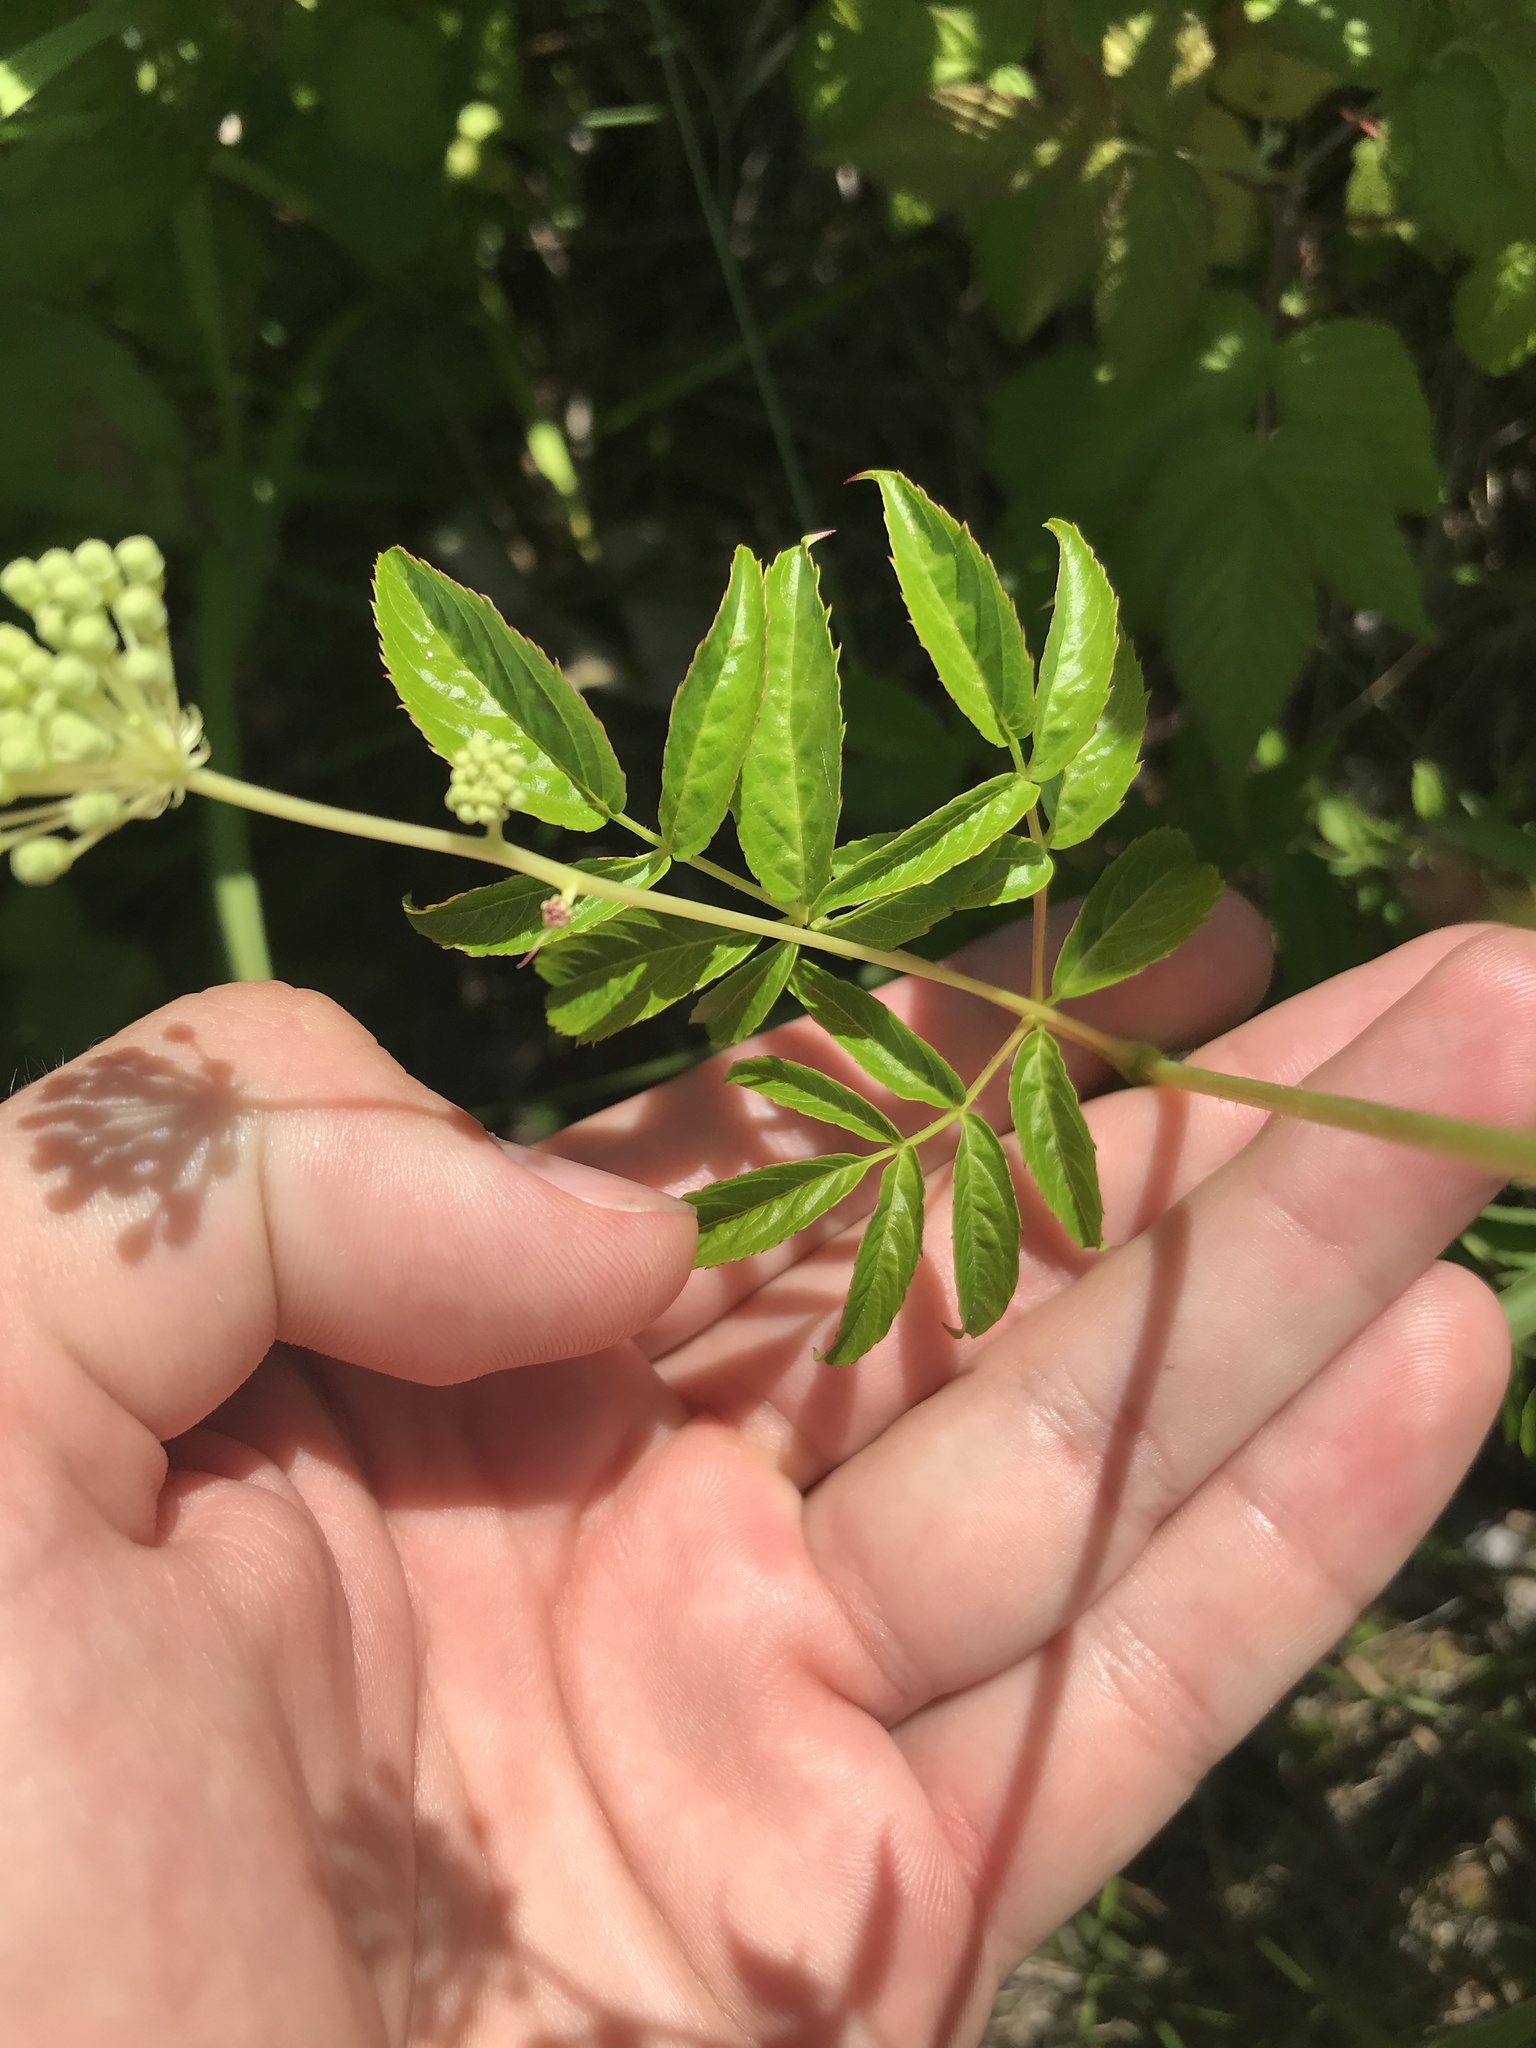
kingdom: Plantae
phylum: Tracheophyta
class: Magnoliopsida
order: Apiales
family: Araliaceae
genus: Aralia
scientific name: Aralia hispida
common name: Bristly sarsaparilla
